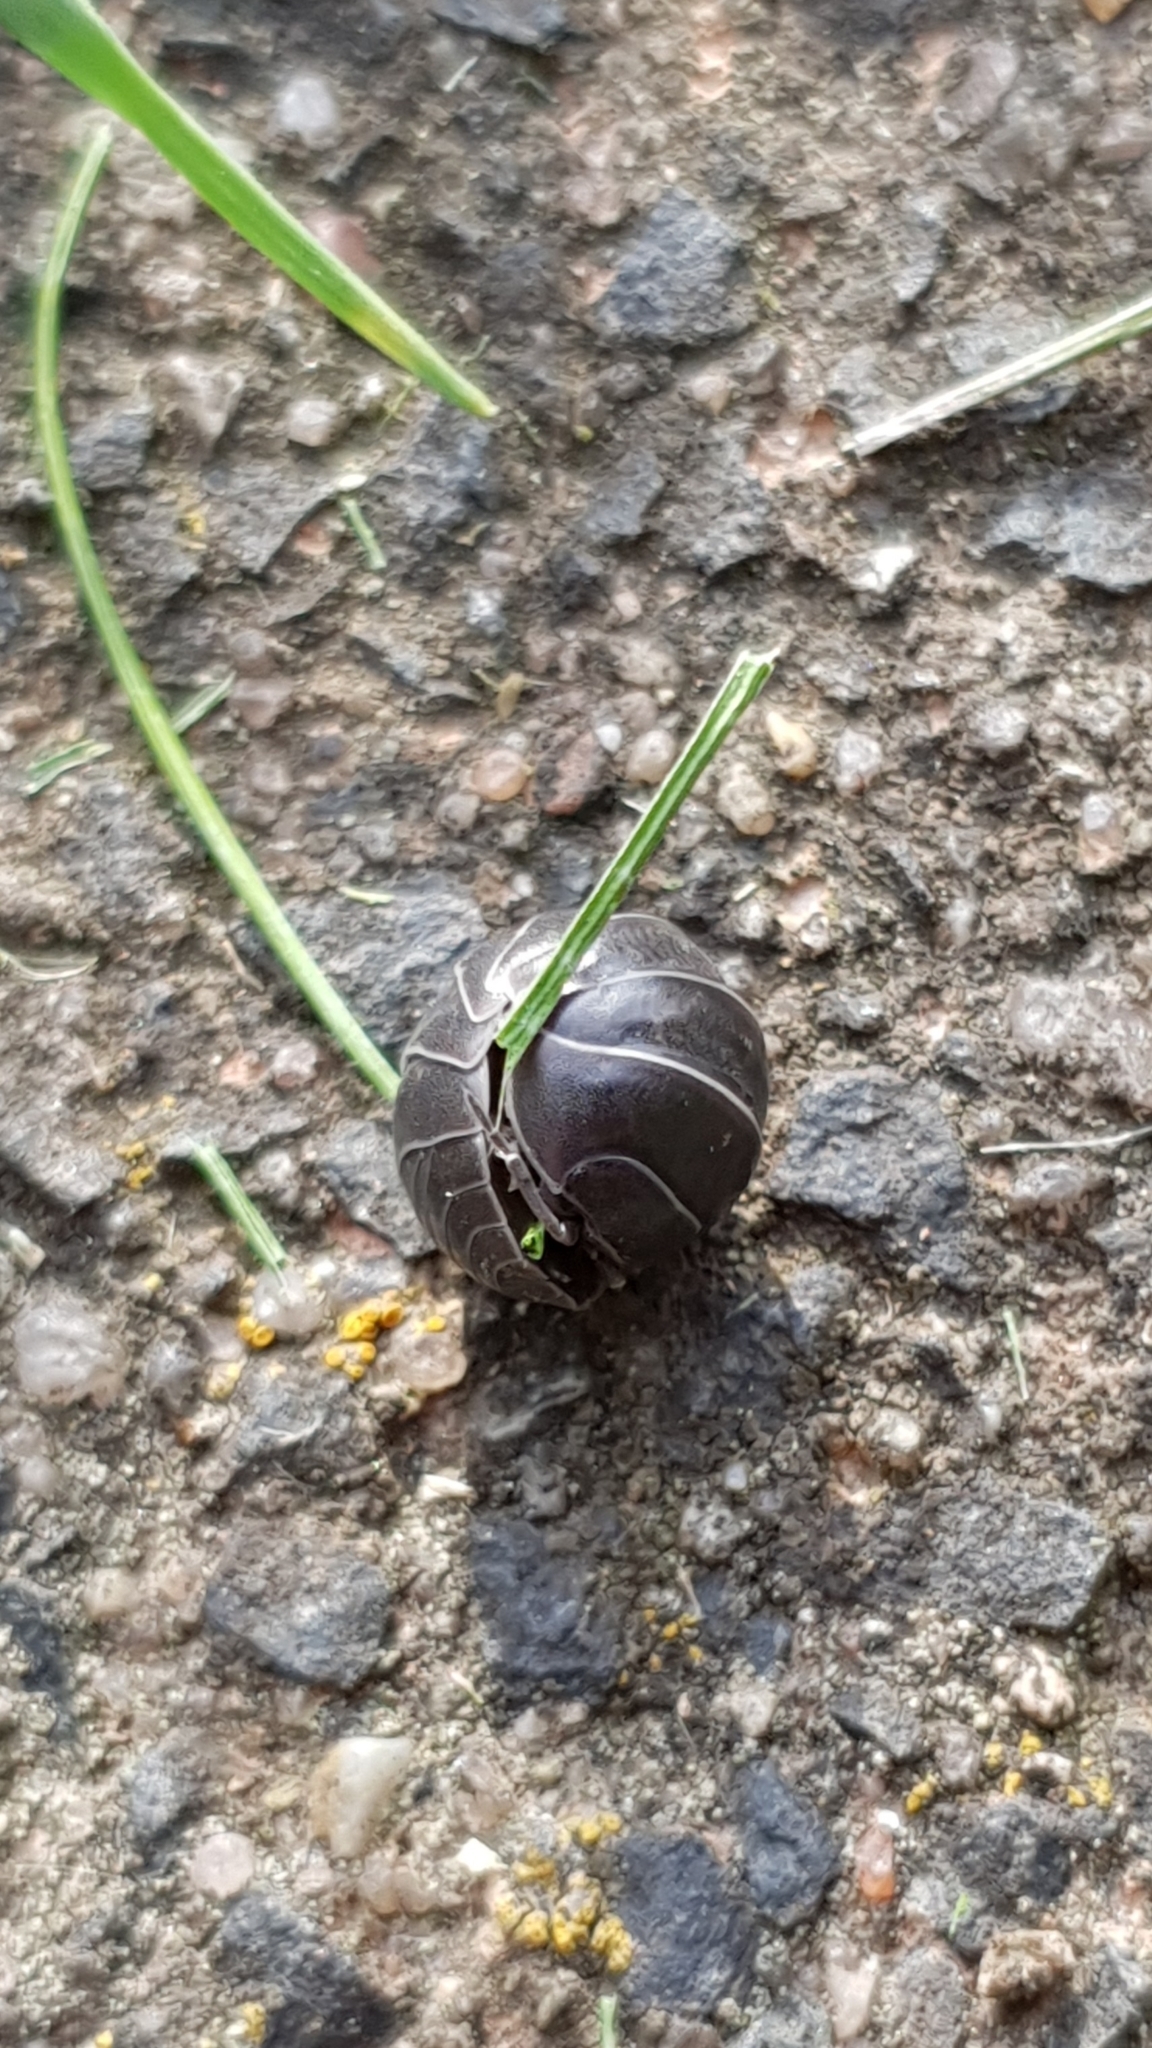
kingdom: Animalia
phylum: Arthropoda
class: Malacostraca
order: Isopoda
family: Armadillidiidae
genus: Armadillidium
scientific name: Armadillidium vulgare
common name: Common pill woodlouse
